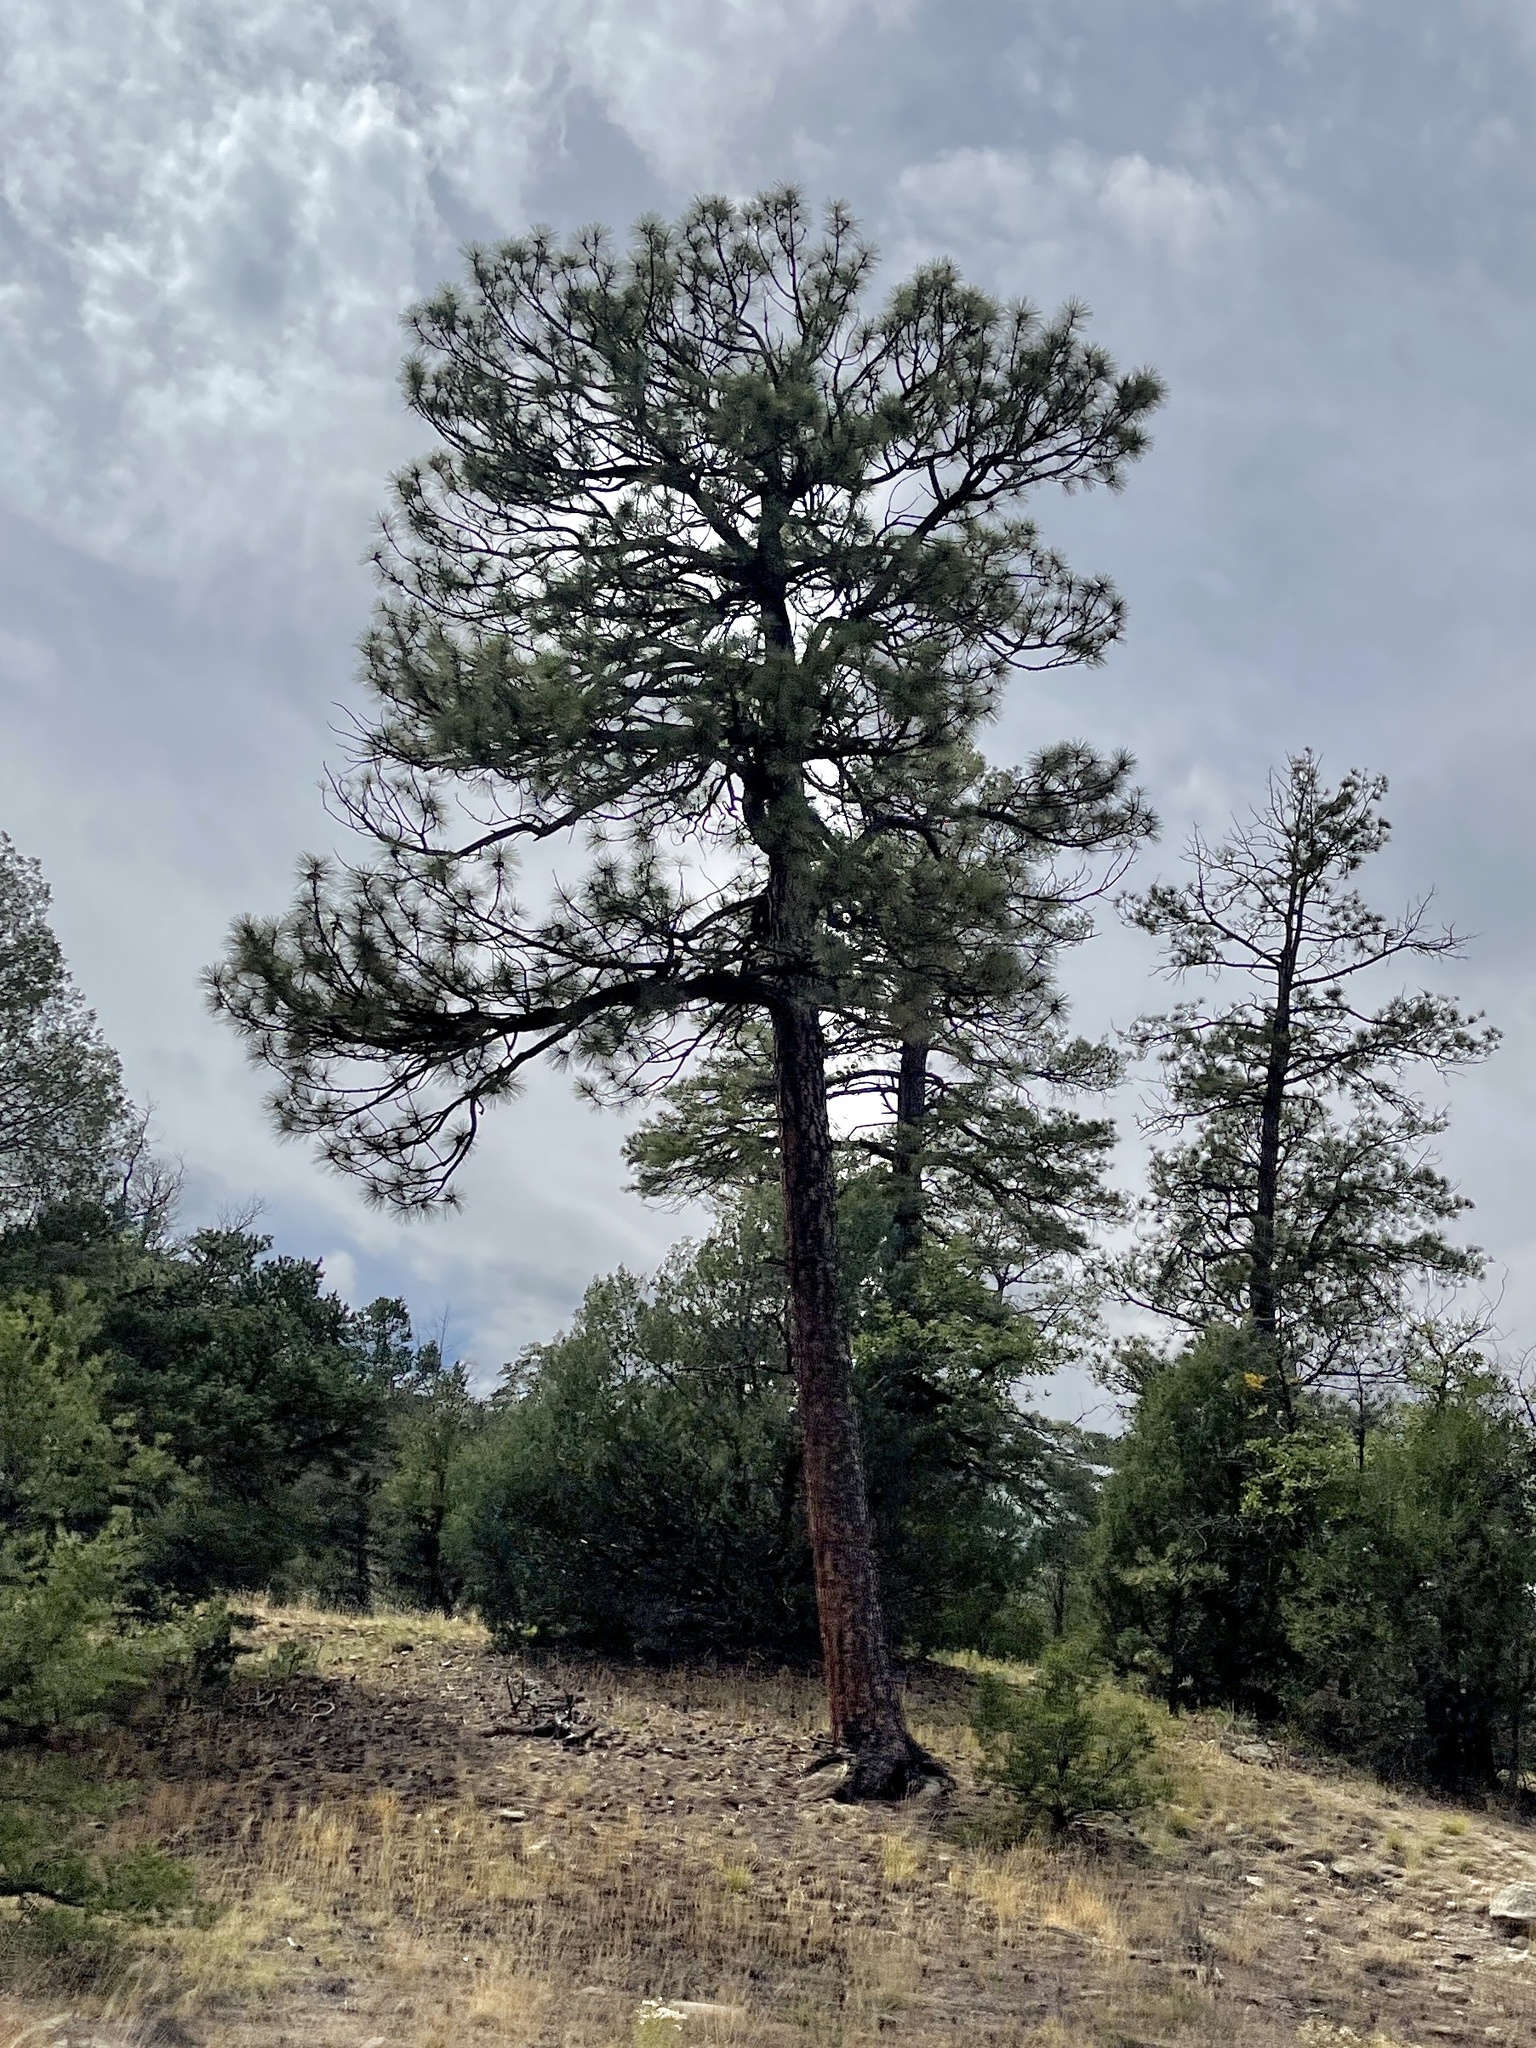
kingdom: Plantae
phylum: Tracheophyta
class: Pinopsida
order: Pinales
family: Pinaceae
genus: Pinus
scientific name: Pinus ponderosa
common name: Western yellow-pine
